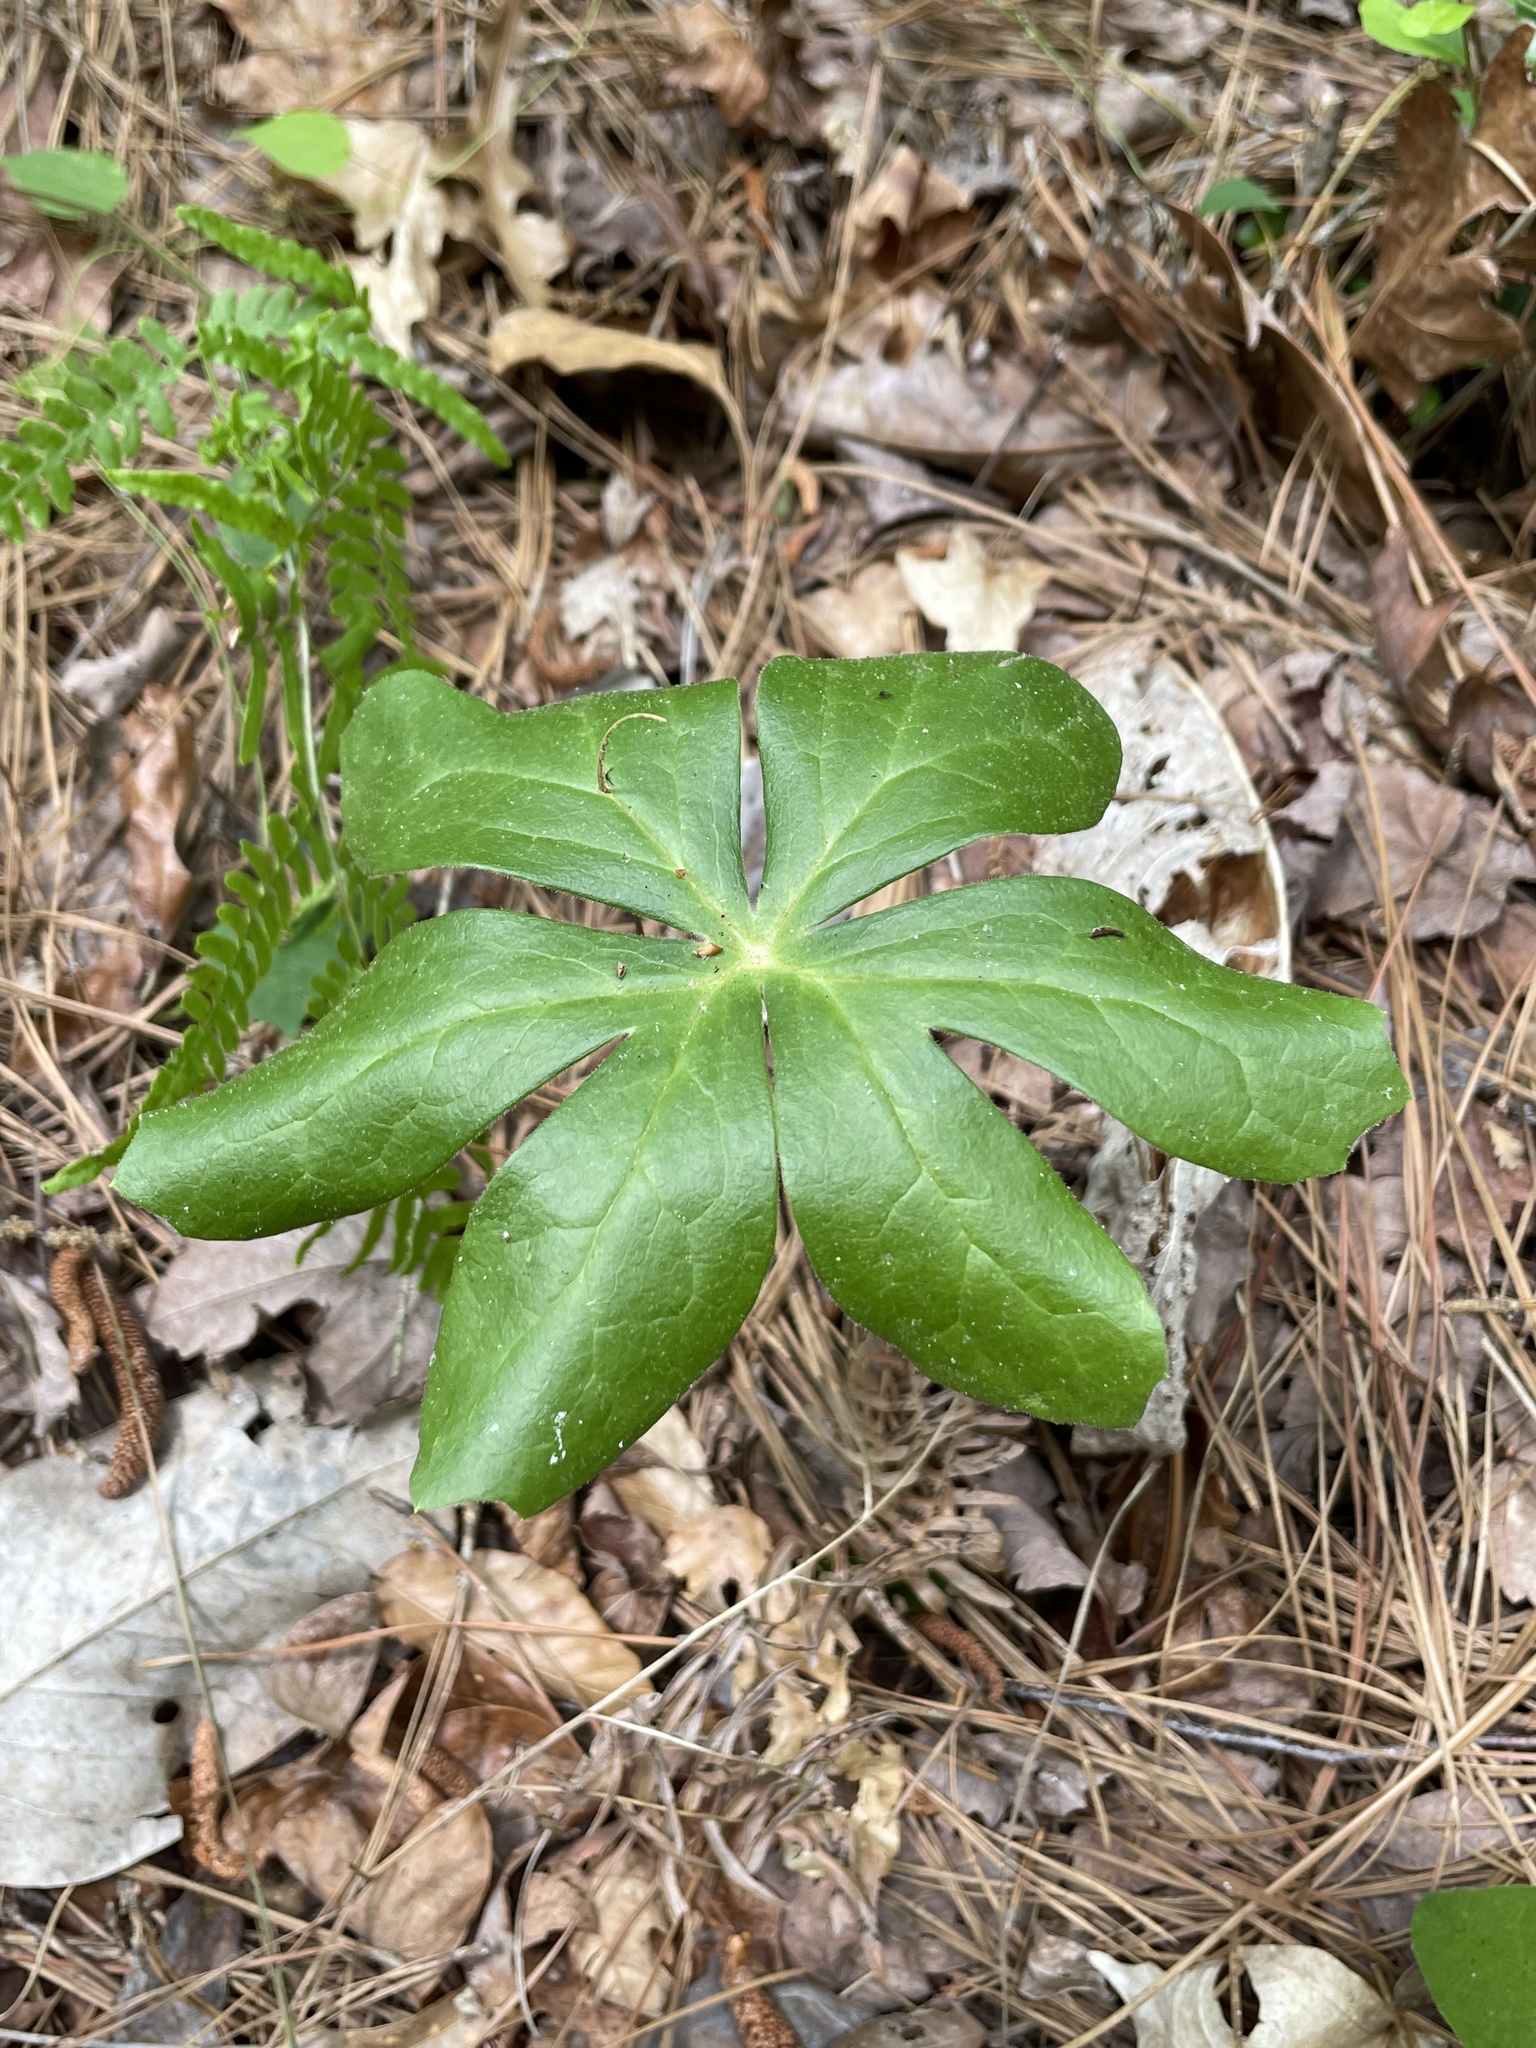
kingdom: Plantae
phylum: Tracheophyta
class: Magnoliopsida
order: Ranunculales
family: Berberidaceae
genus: Podophyllum
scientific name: Podophyllum peltatum
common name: Wild mandrake
